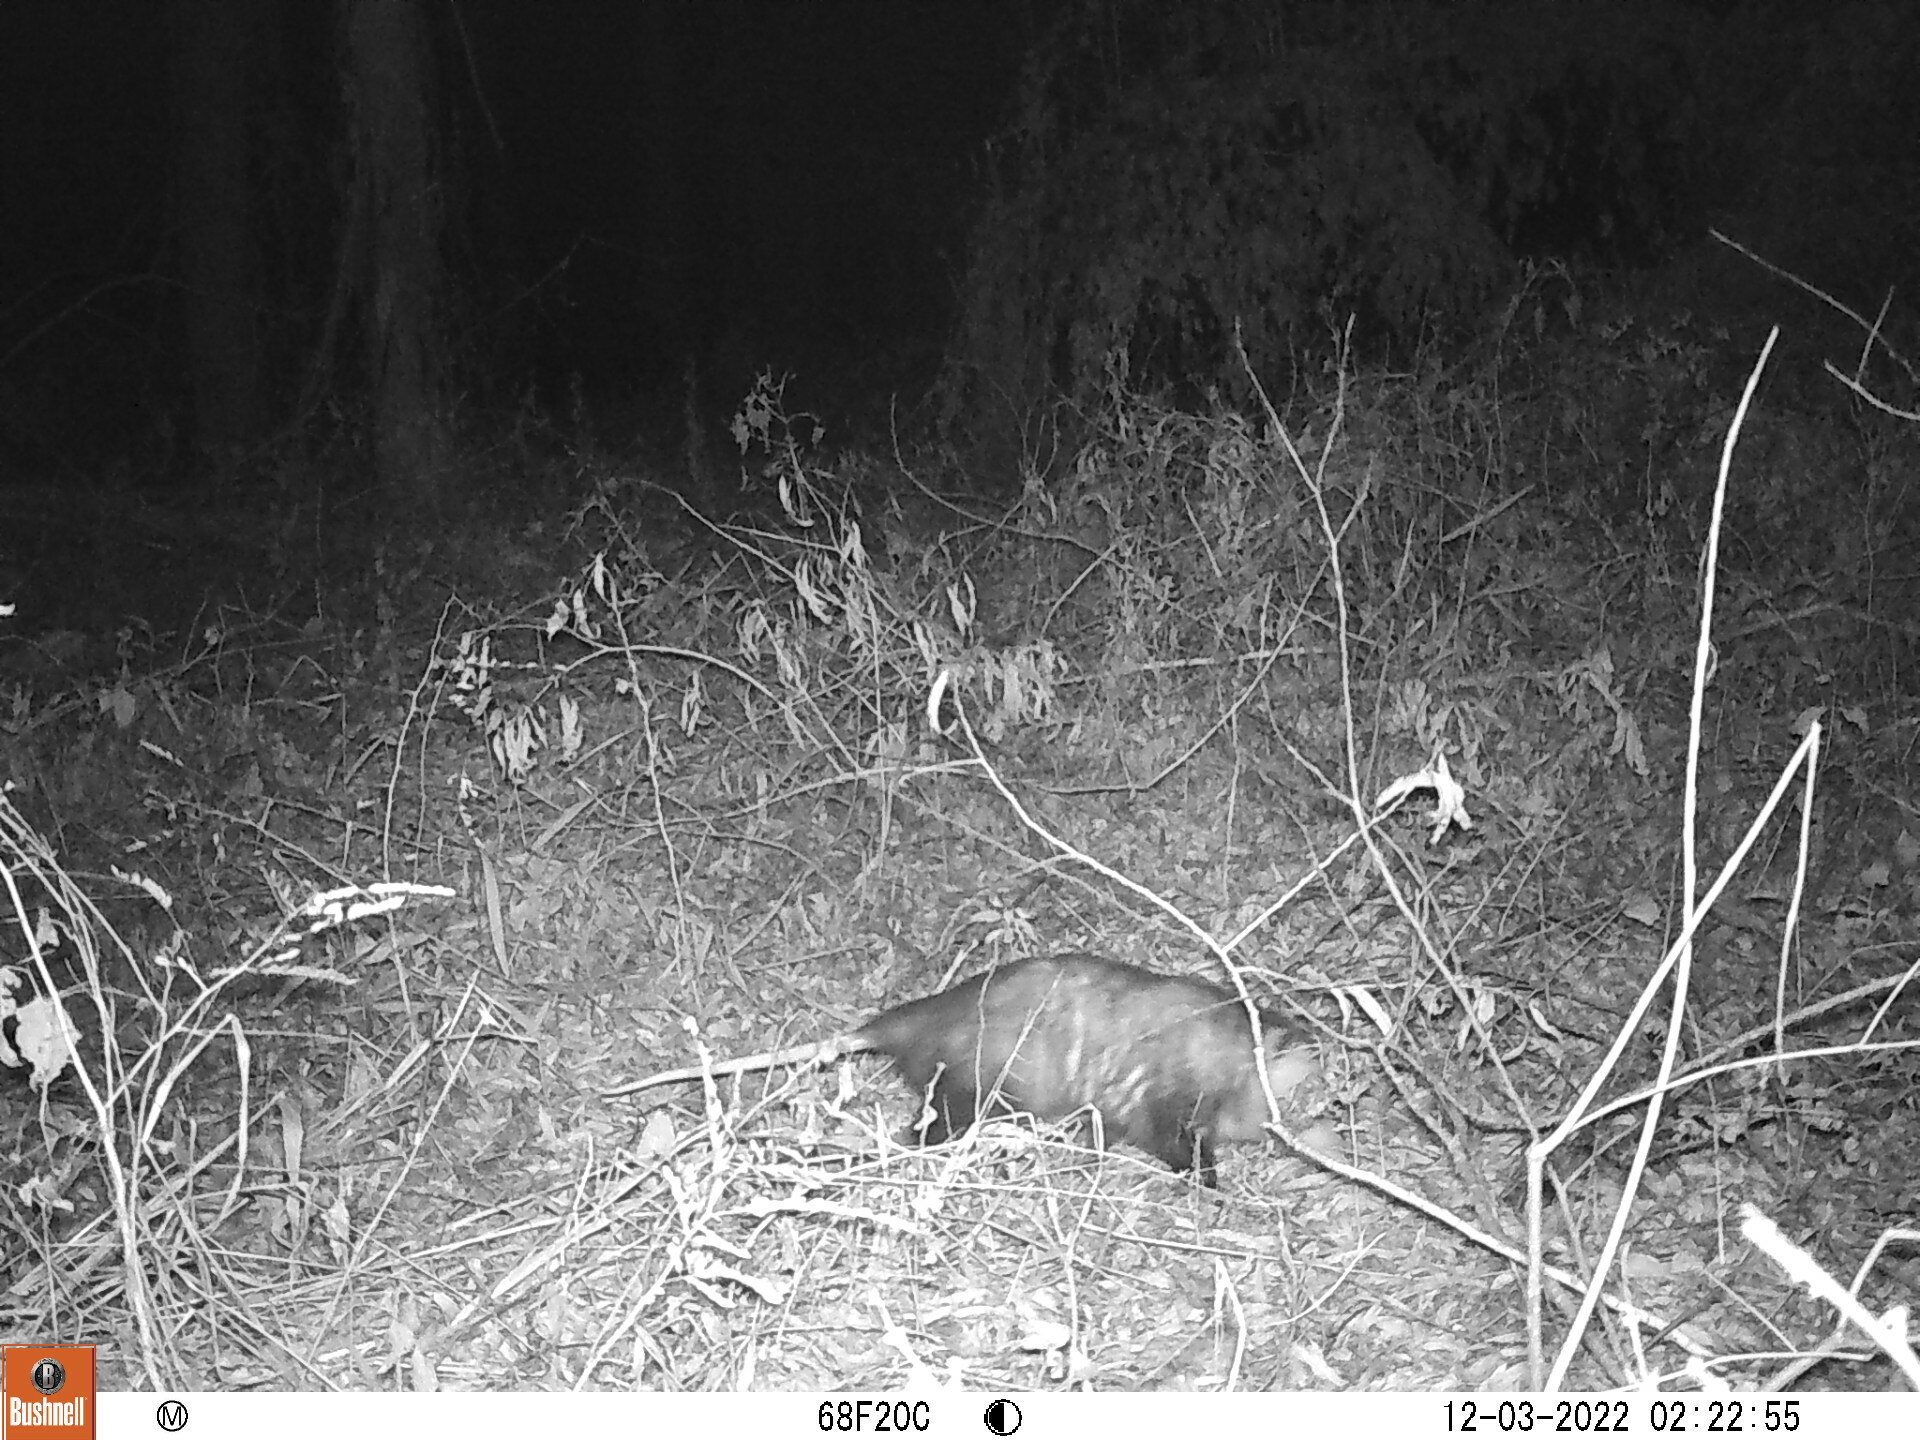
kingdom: Animalia
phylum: Chordata
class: Mammalia
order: Didelphimorphia
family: Didelphidae
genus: Didelphis
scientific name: Didelphis virginiana
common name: Virginia opossum
